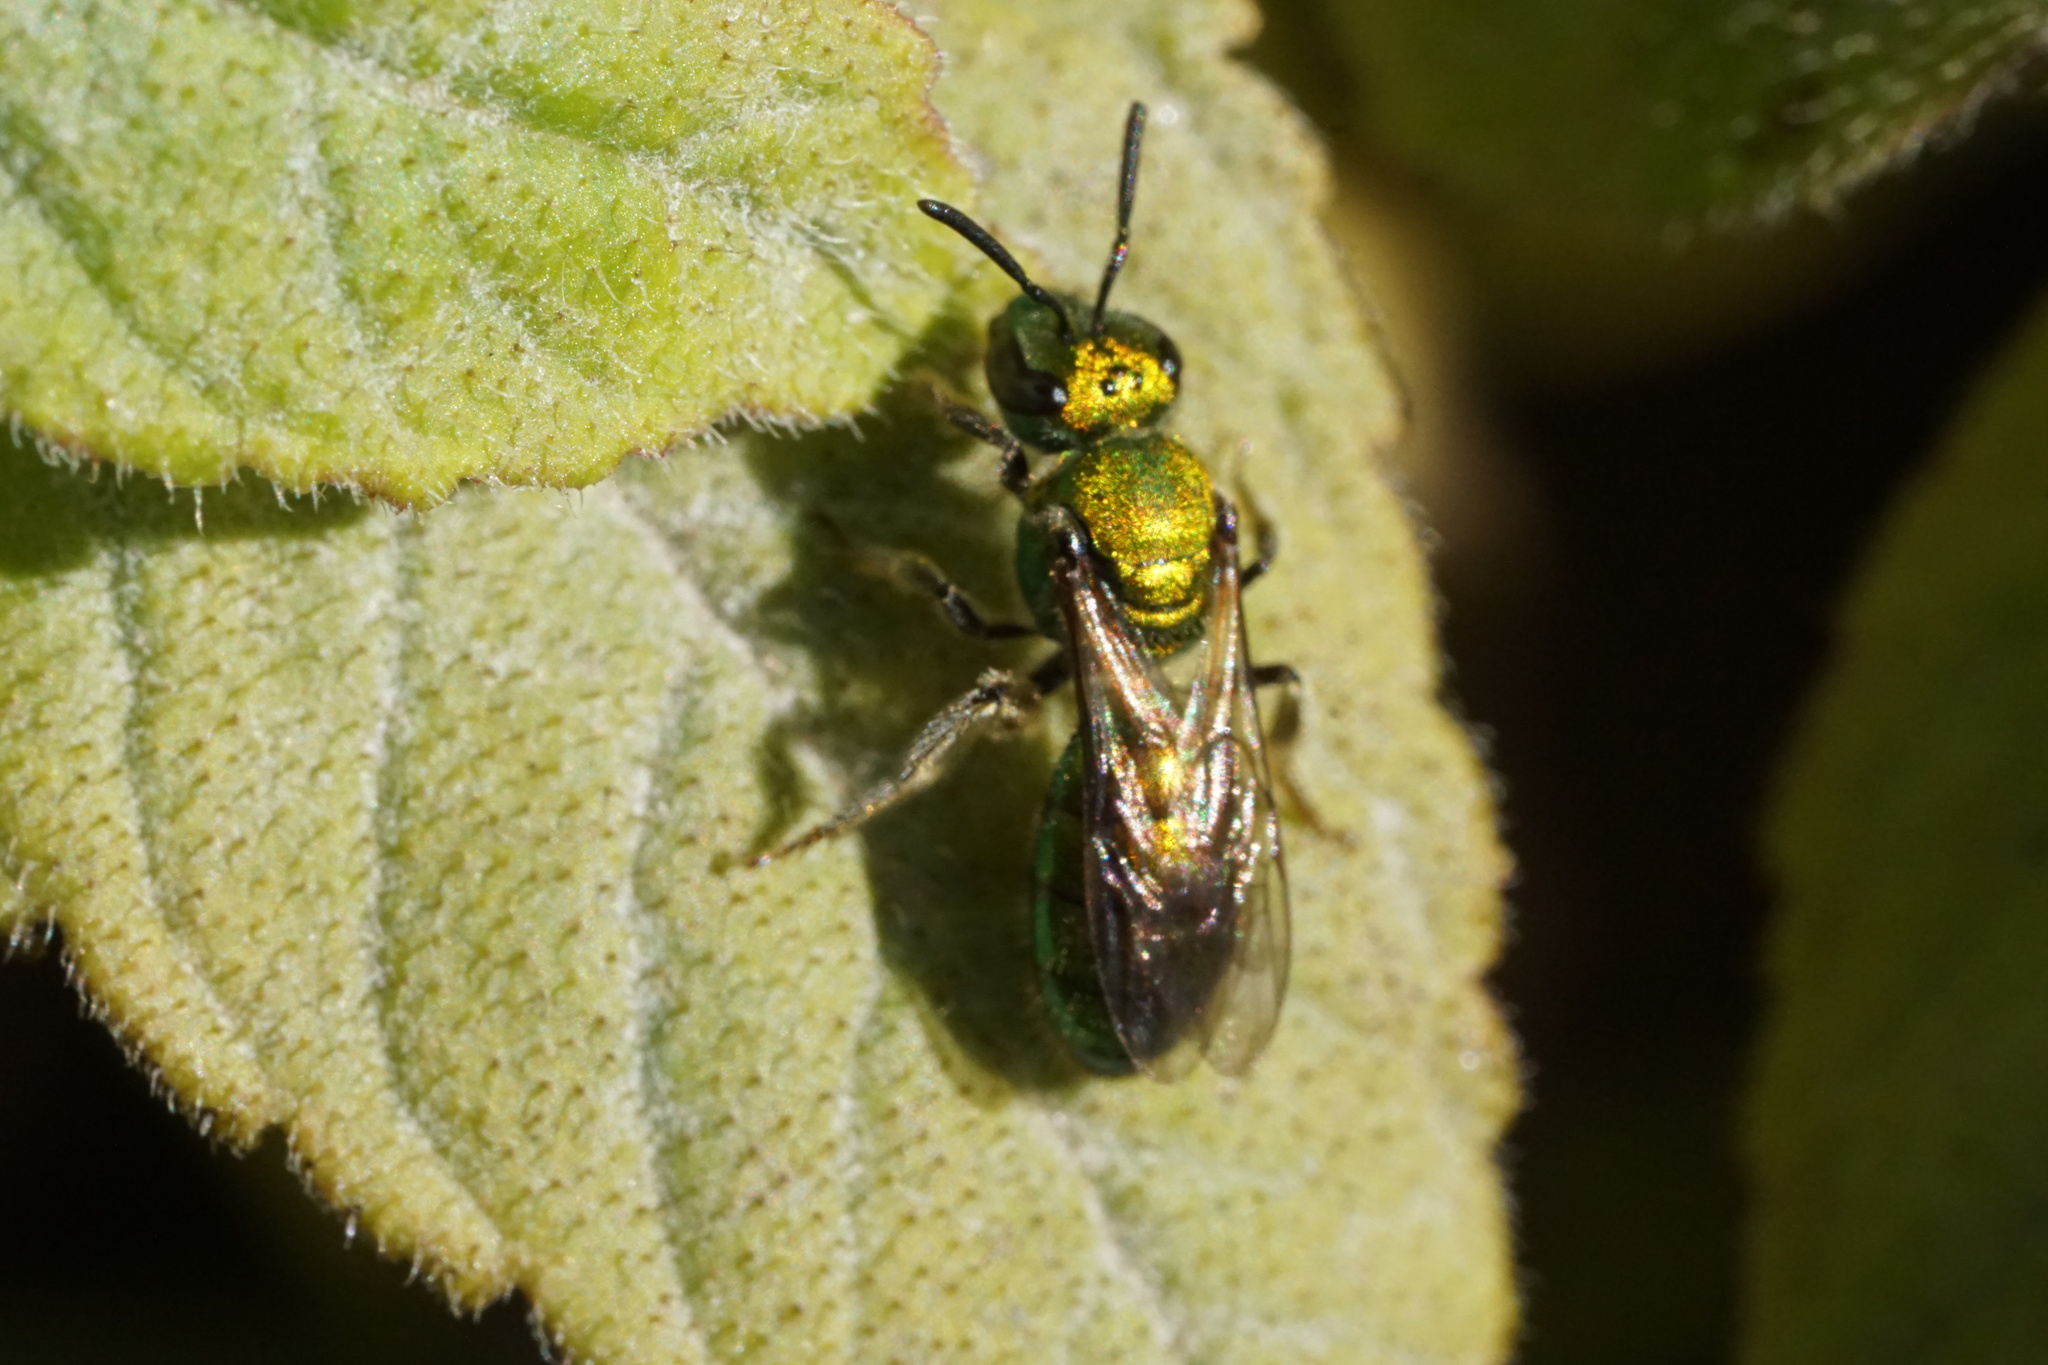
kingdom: Animalia
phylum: Arthropoda
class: Insecta
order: Hymenoptera
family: Halictidae
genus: Augochlora
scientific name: Augochlora pura
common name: Pure green sweat bee
